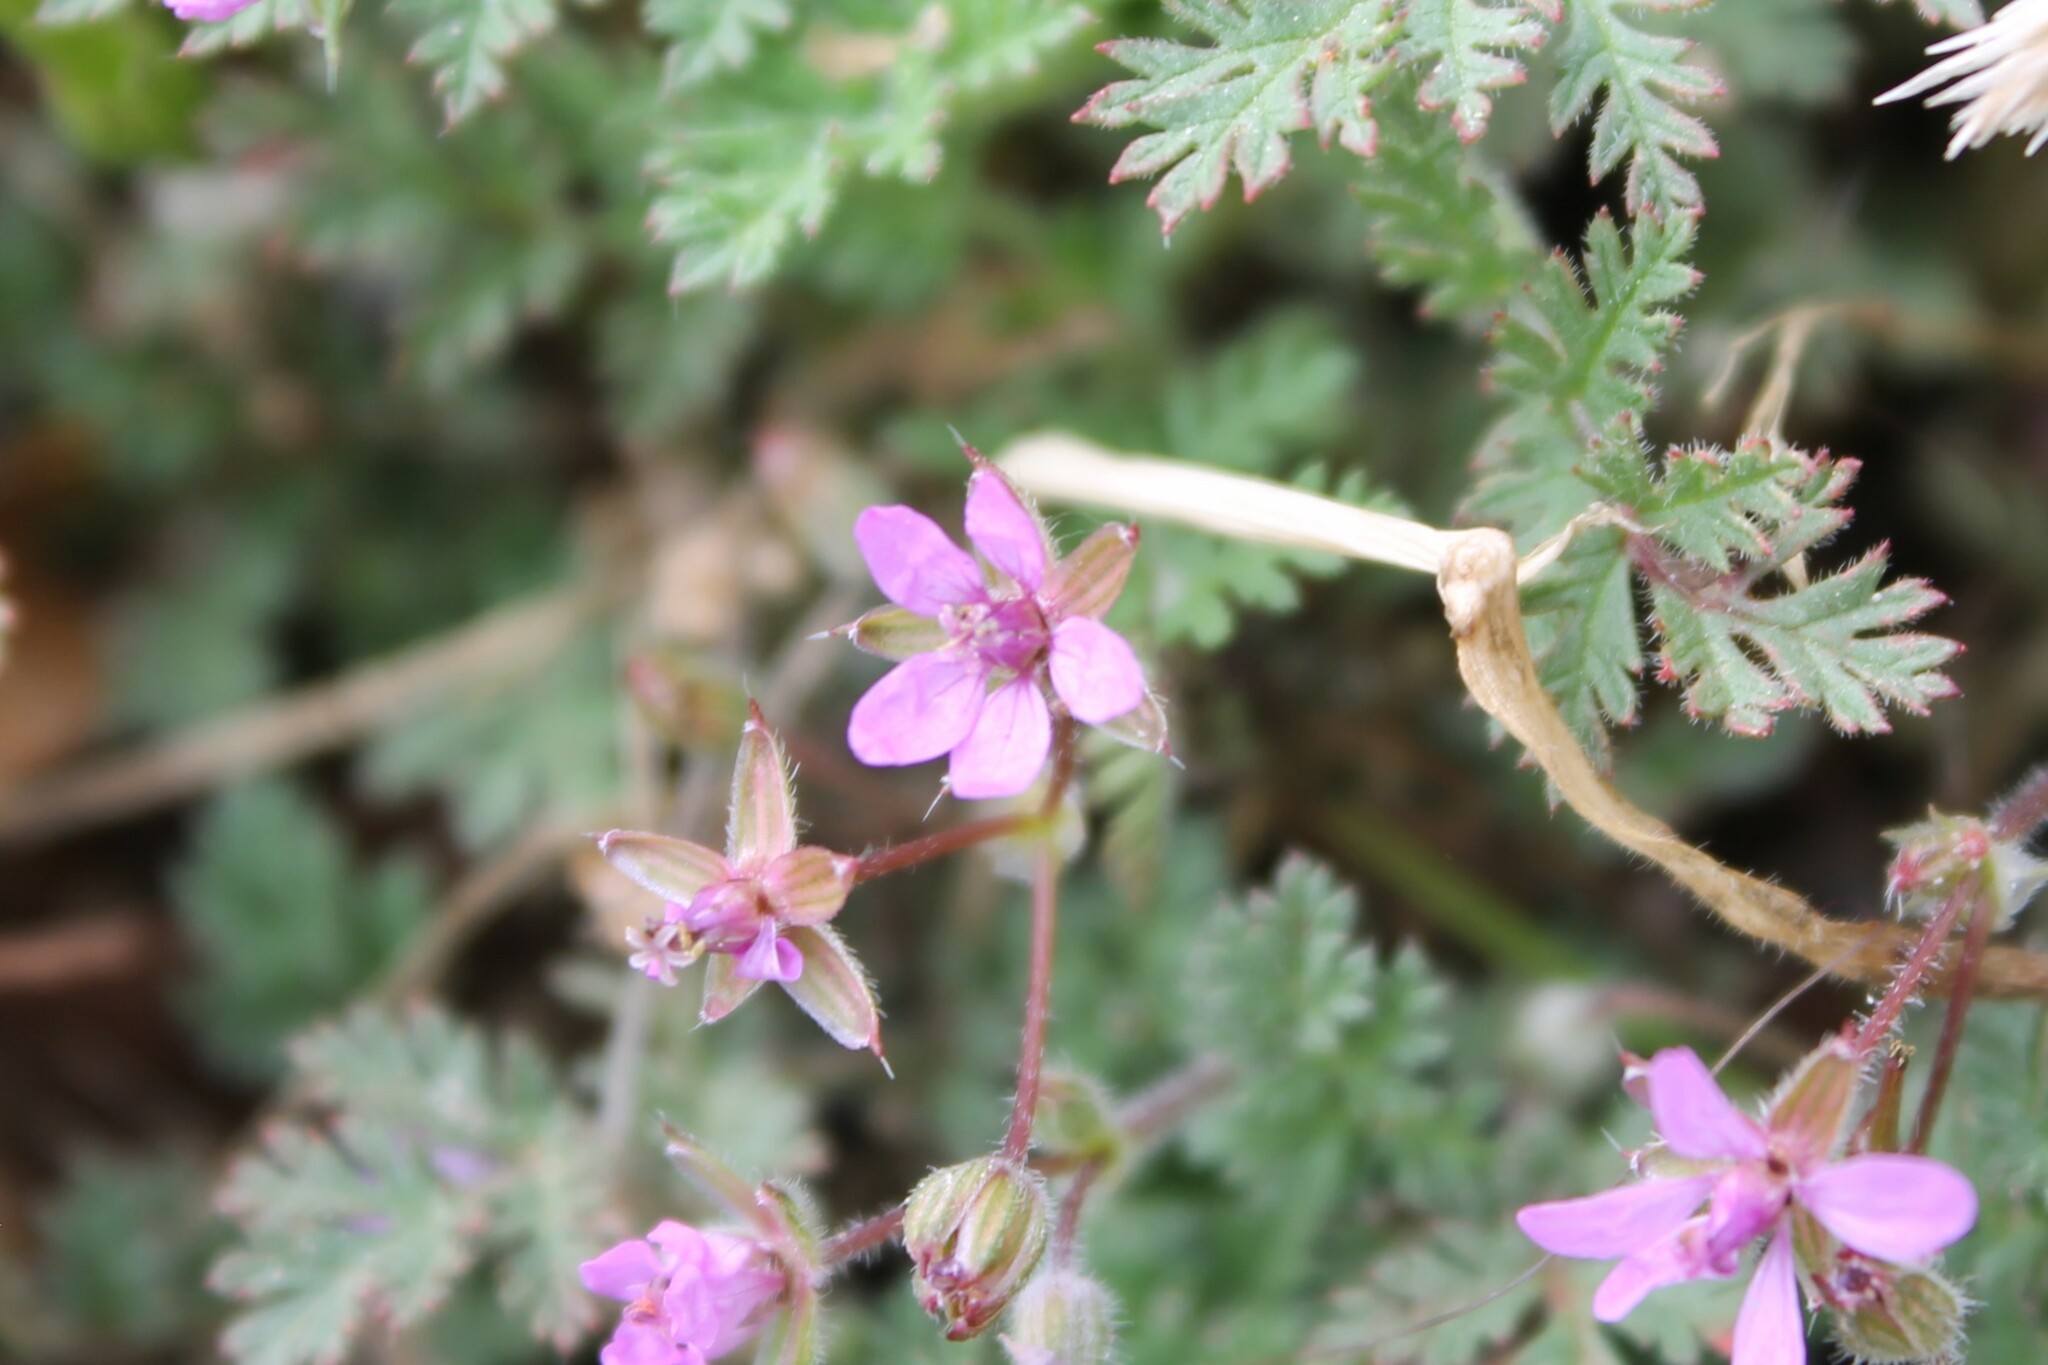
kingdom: Plantae
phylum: Tracheophyta
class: Magnoliopsida
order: Geraniales
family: Geraniaceae
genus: Erodium
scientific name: Erodium cicutarium
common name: Common stork's-bill
